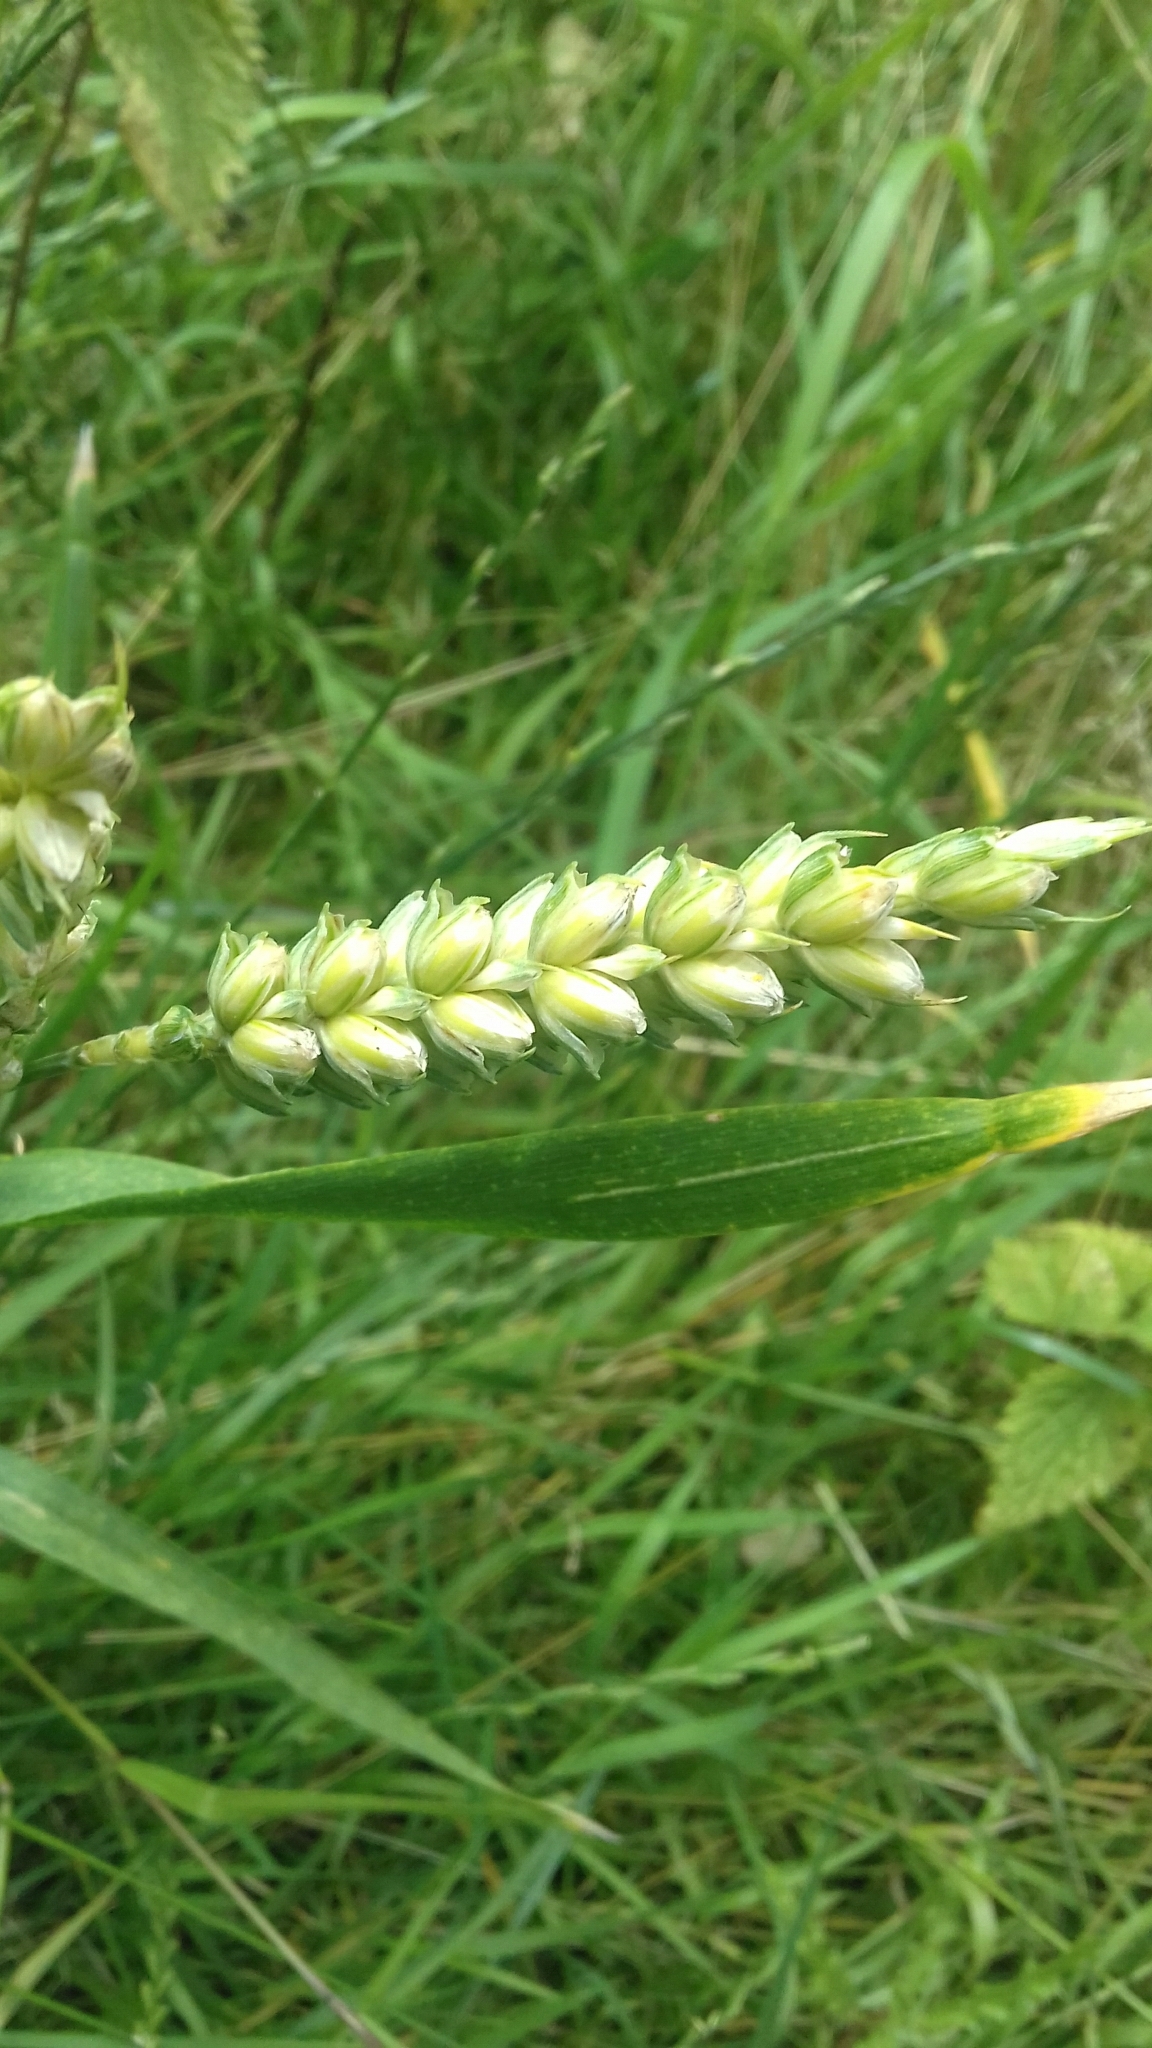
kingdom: Plantae
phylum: Tracheophyta
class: Liliopsida
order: Poales
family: Poaceae
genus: Triticum
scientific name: Triticum aestivum
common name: Common wheat
